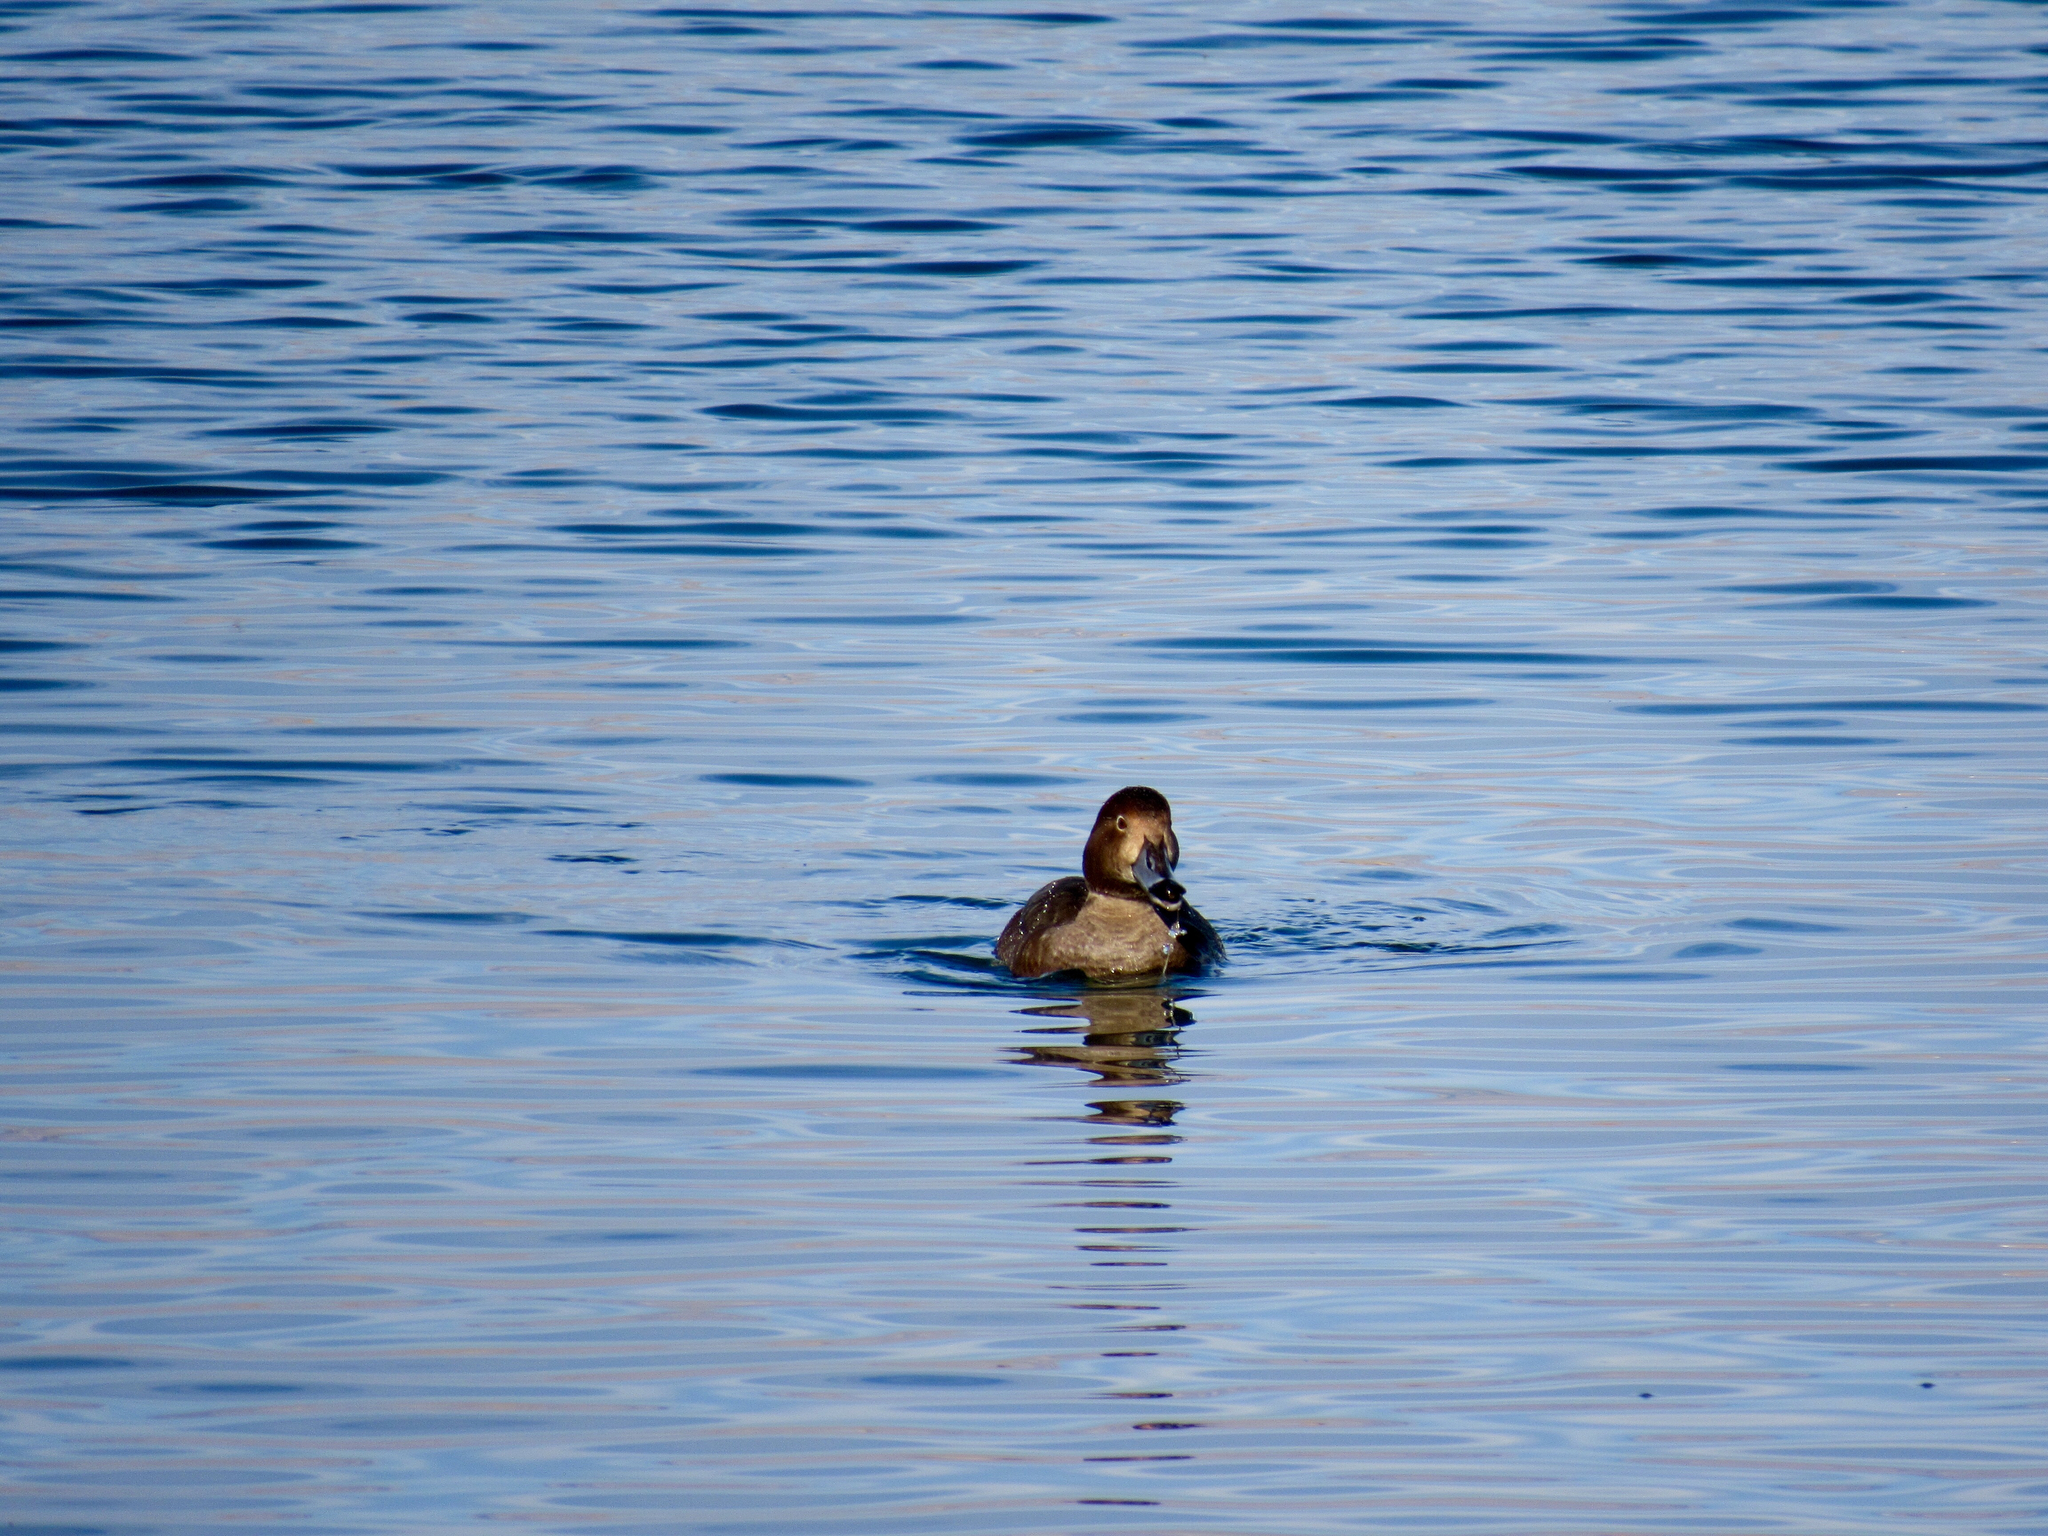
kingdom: Animalia
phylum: Chordata
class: Aves
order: Anseriformes
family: Anatidae
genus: Aythya
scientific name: Aythya americana
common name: Redhead
